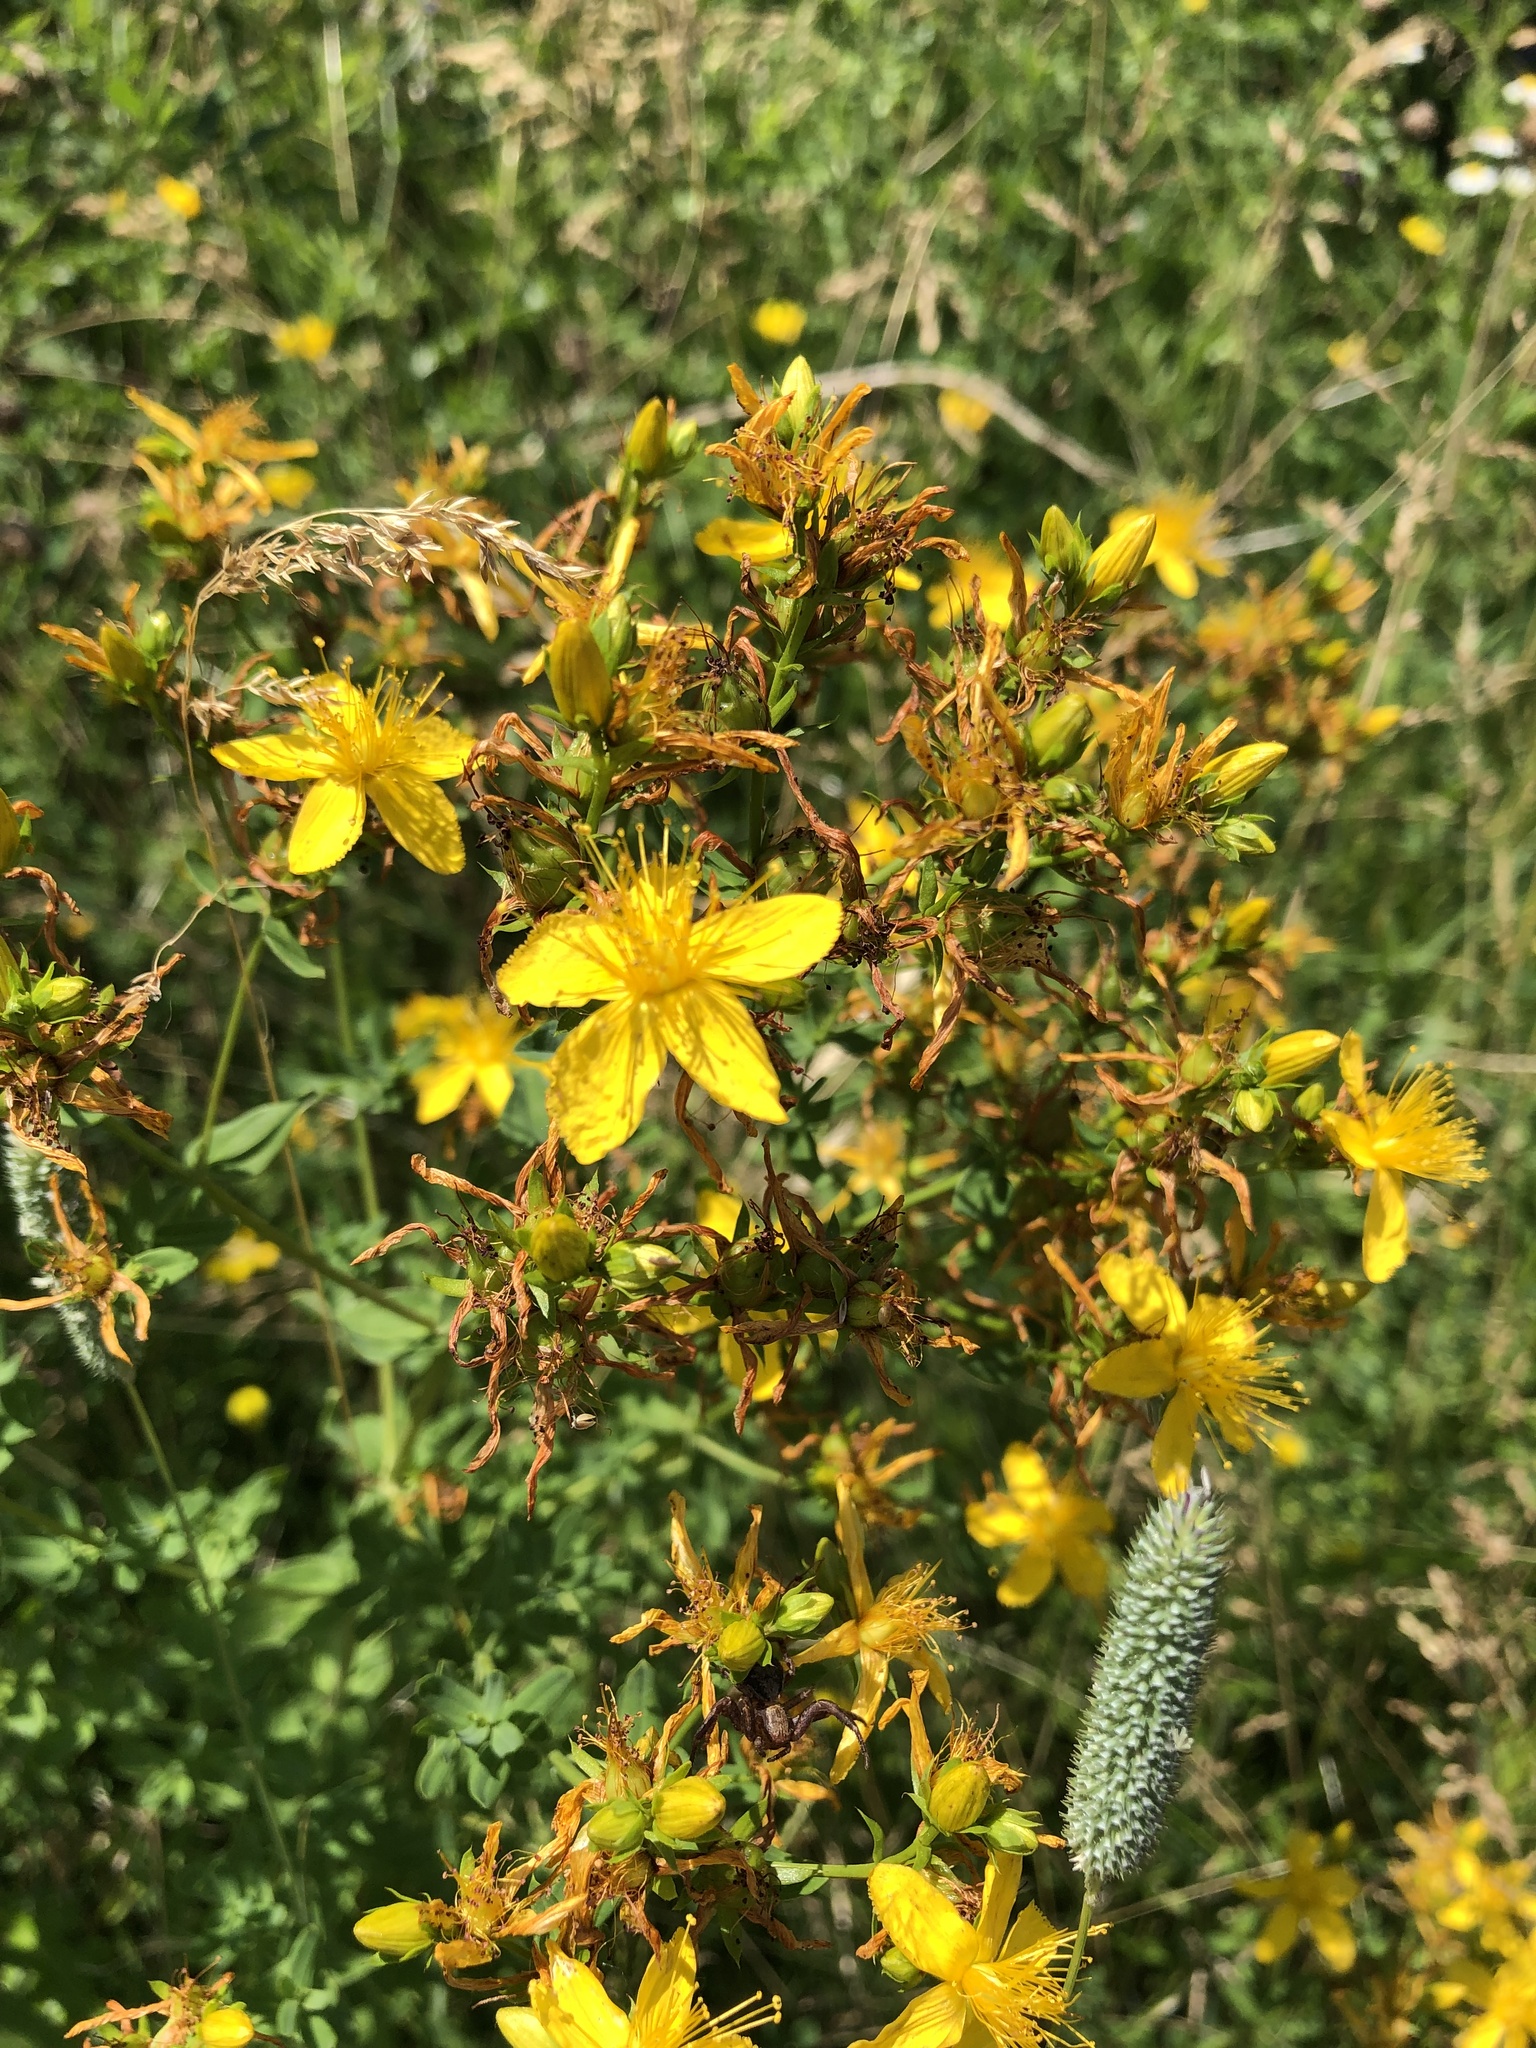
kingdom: Plantae
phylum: Tracheophyta
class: Magnoliopsida
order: Malpighiales
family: Hypericaceae
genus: Hypericum
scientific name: Hypericum perforatum
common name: Common st. johnswort
